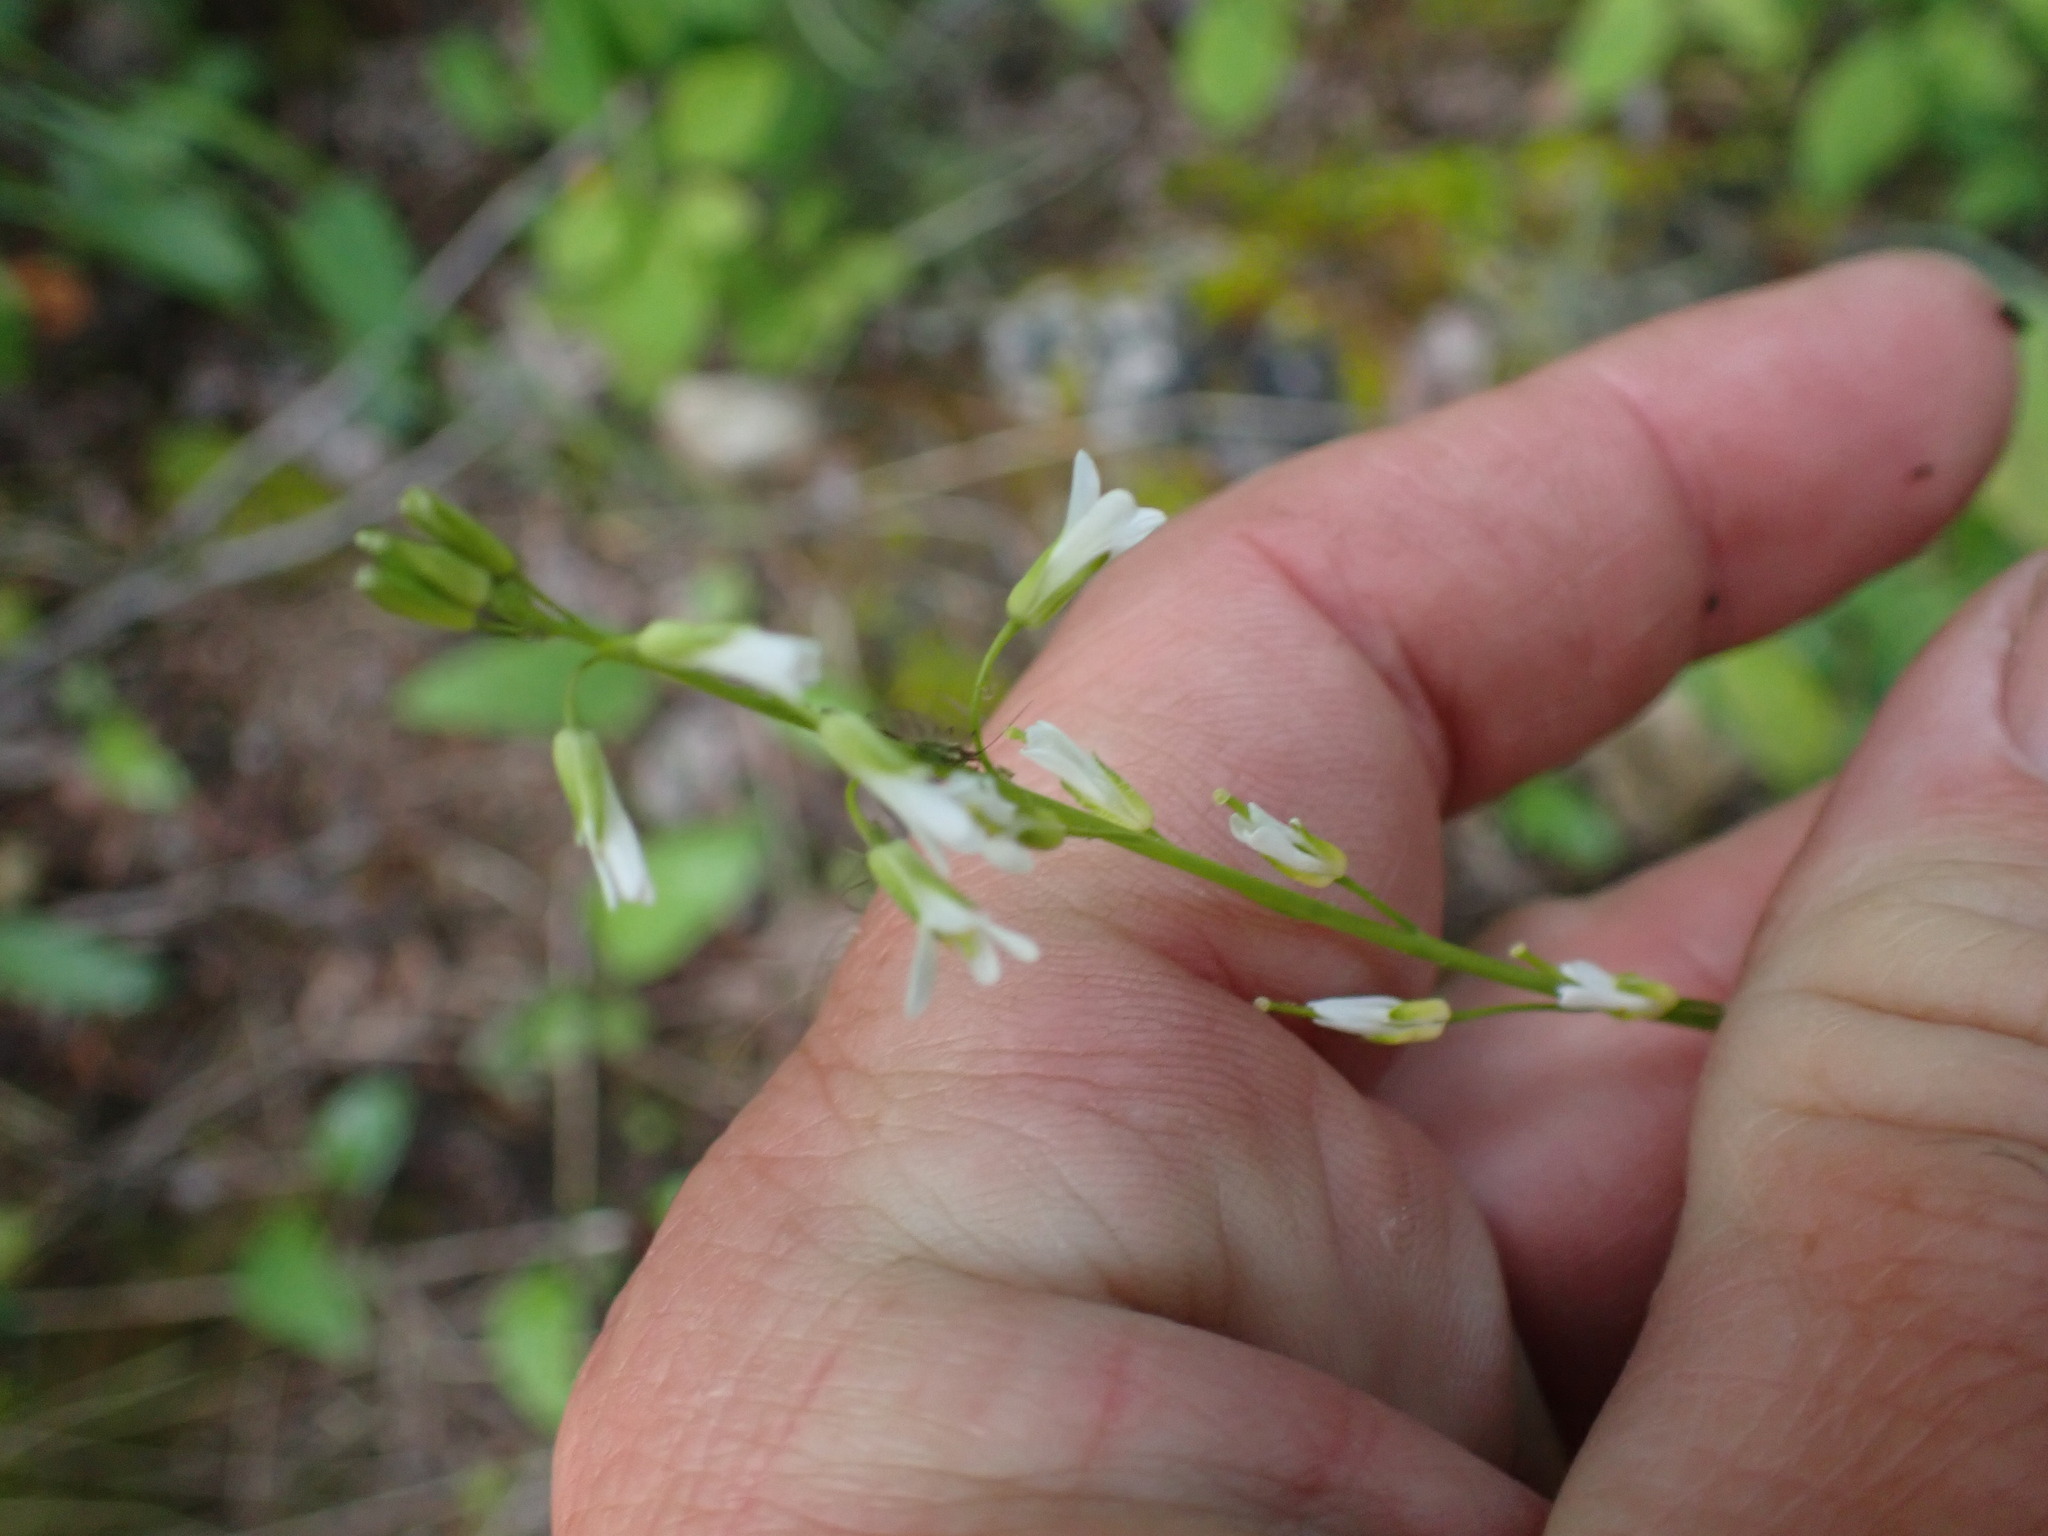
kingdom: Plantae
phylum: Tracheophyta
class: Magnoliopsida
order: Brassicales
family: Brassicaceae
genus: Arabis
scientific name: Arabis pycnocarpa
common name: Blushing rockcress
